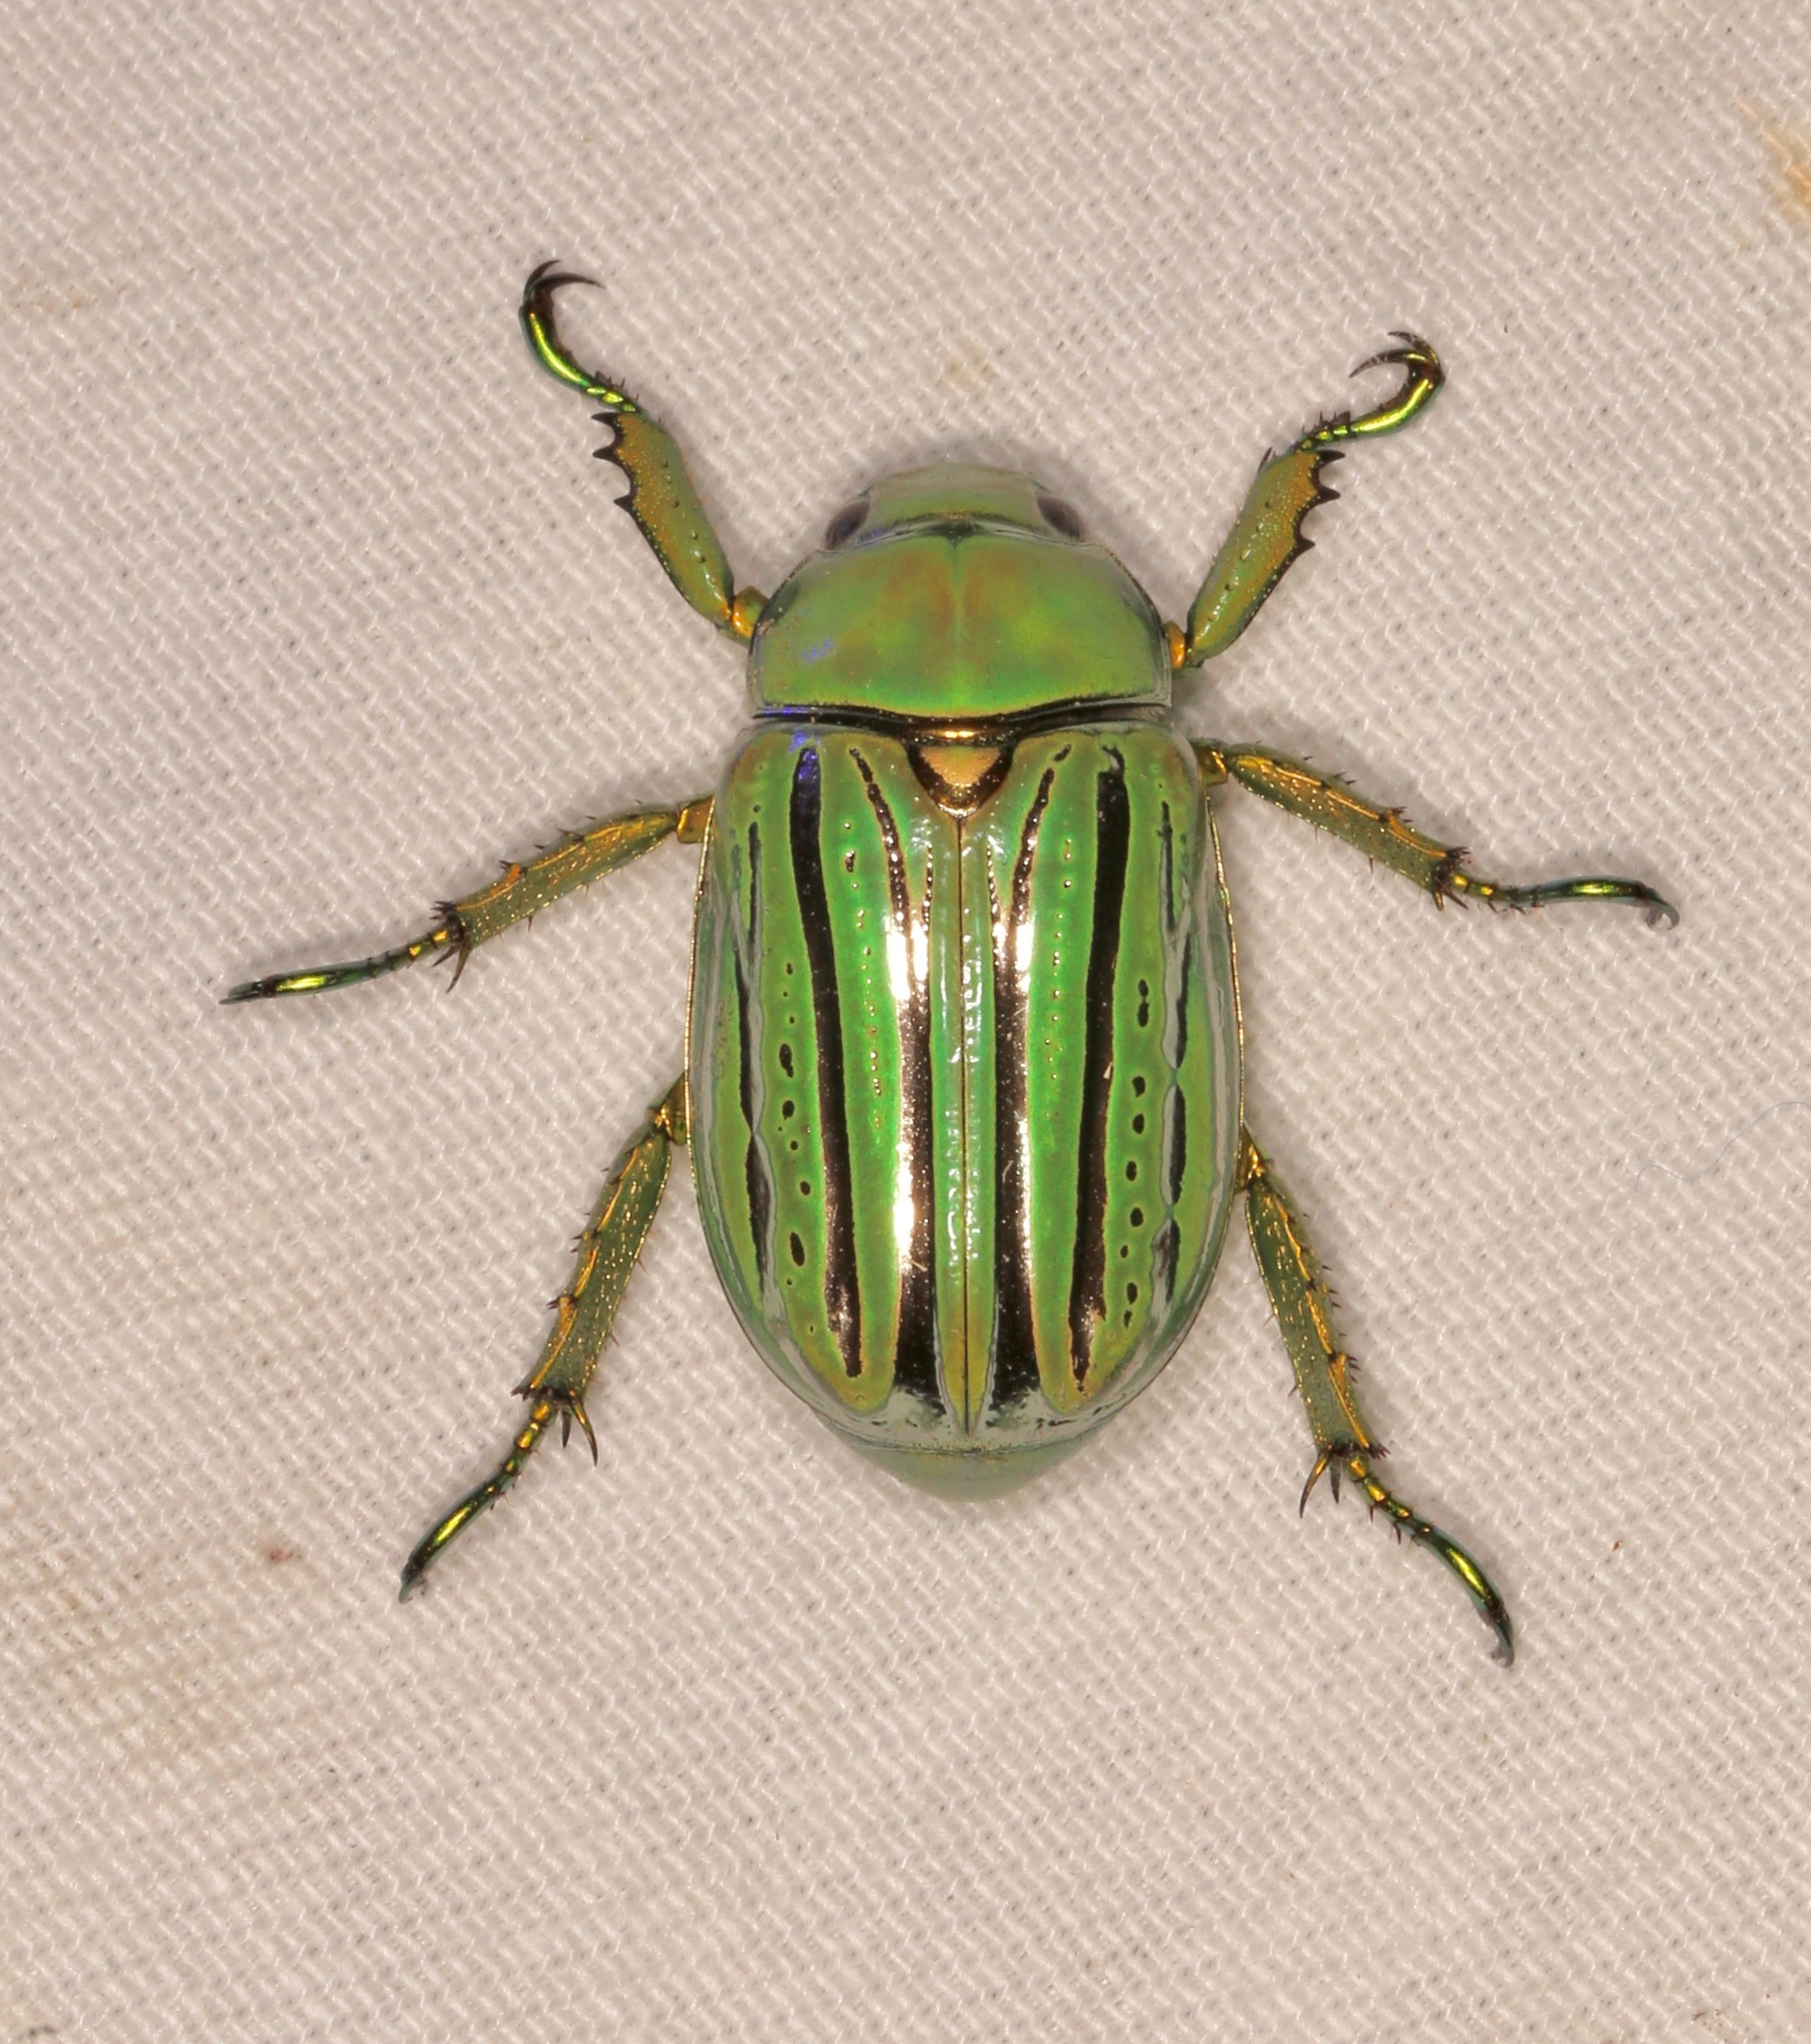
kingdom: Animalia
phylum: Arthropoda
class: Insecta
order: Coleoptera
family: Scarabaeidae
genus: Chrysina
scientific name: Chrysina gloriosa
